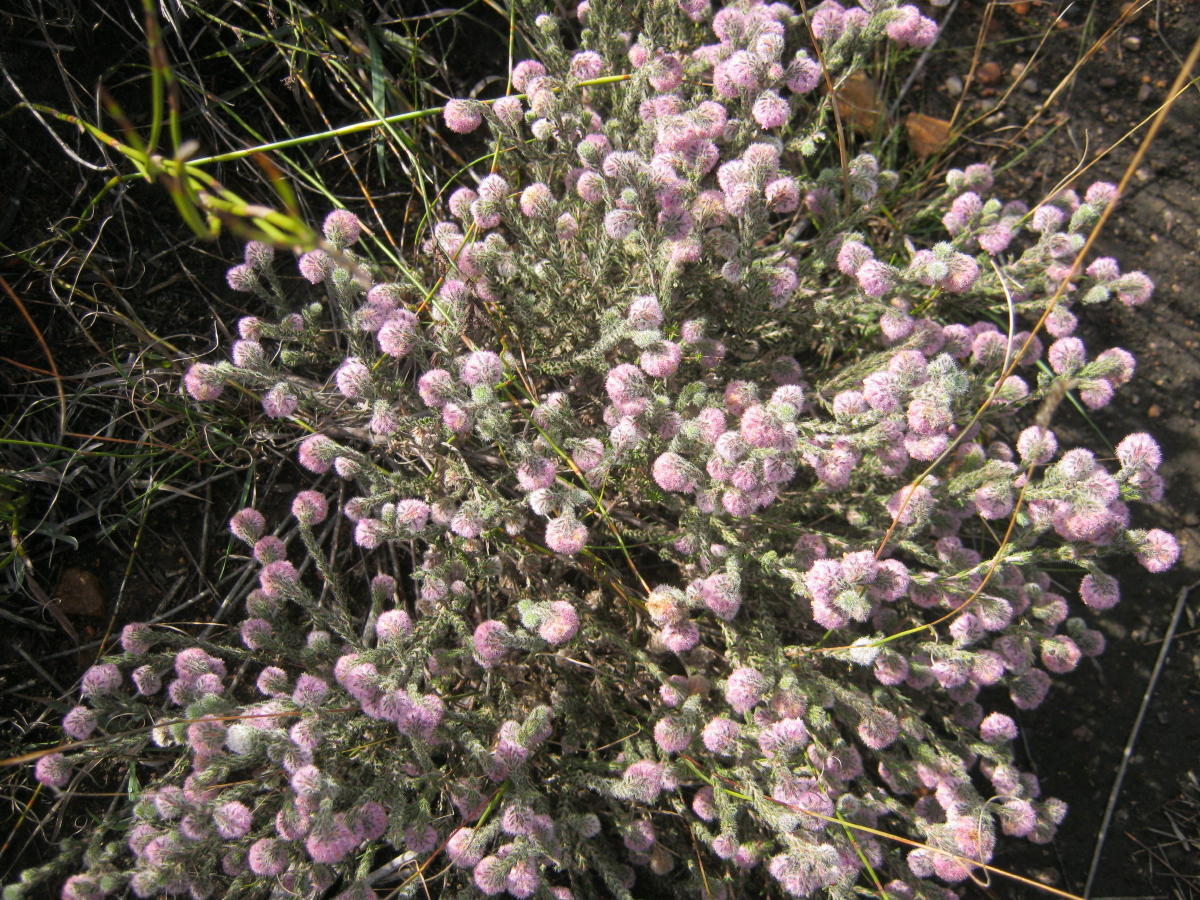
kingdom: Plantae
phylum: Tracheophyta
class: Magnoliopsida
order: Ericales
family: Ericaceae
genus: Erica
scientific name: Erica solandra
